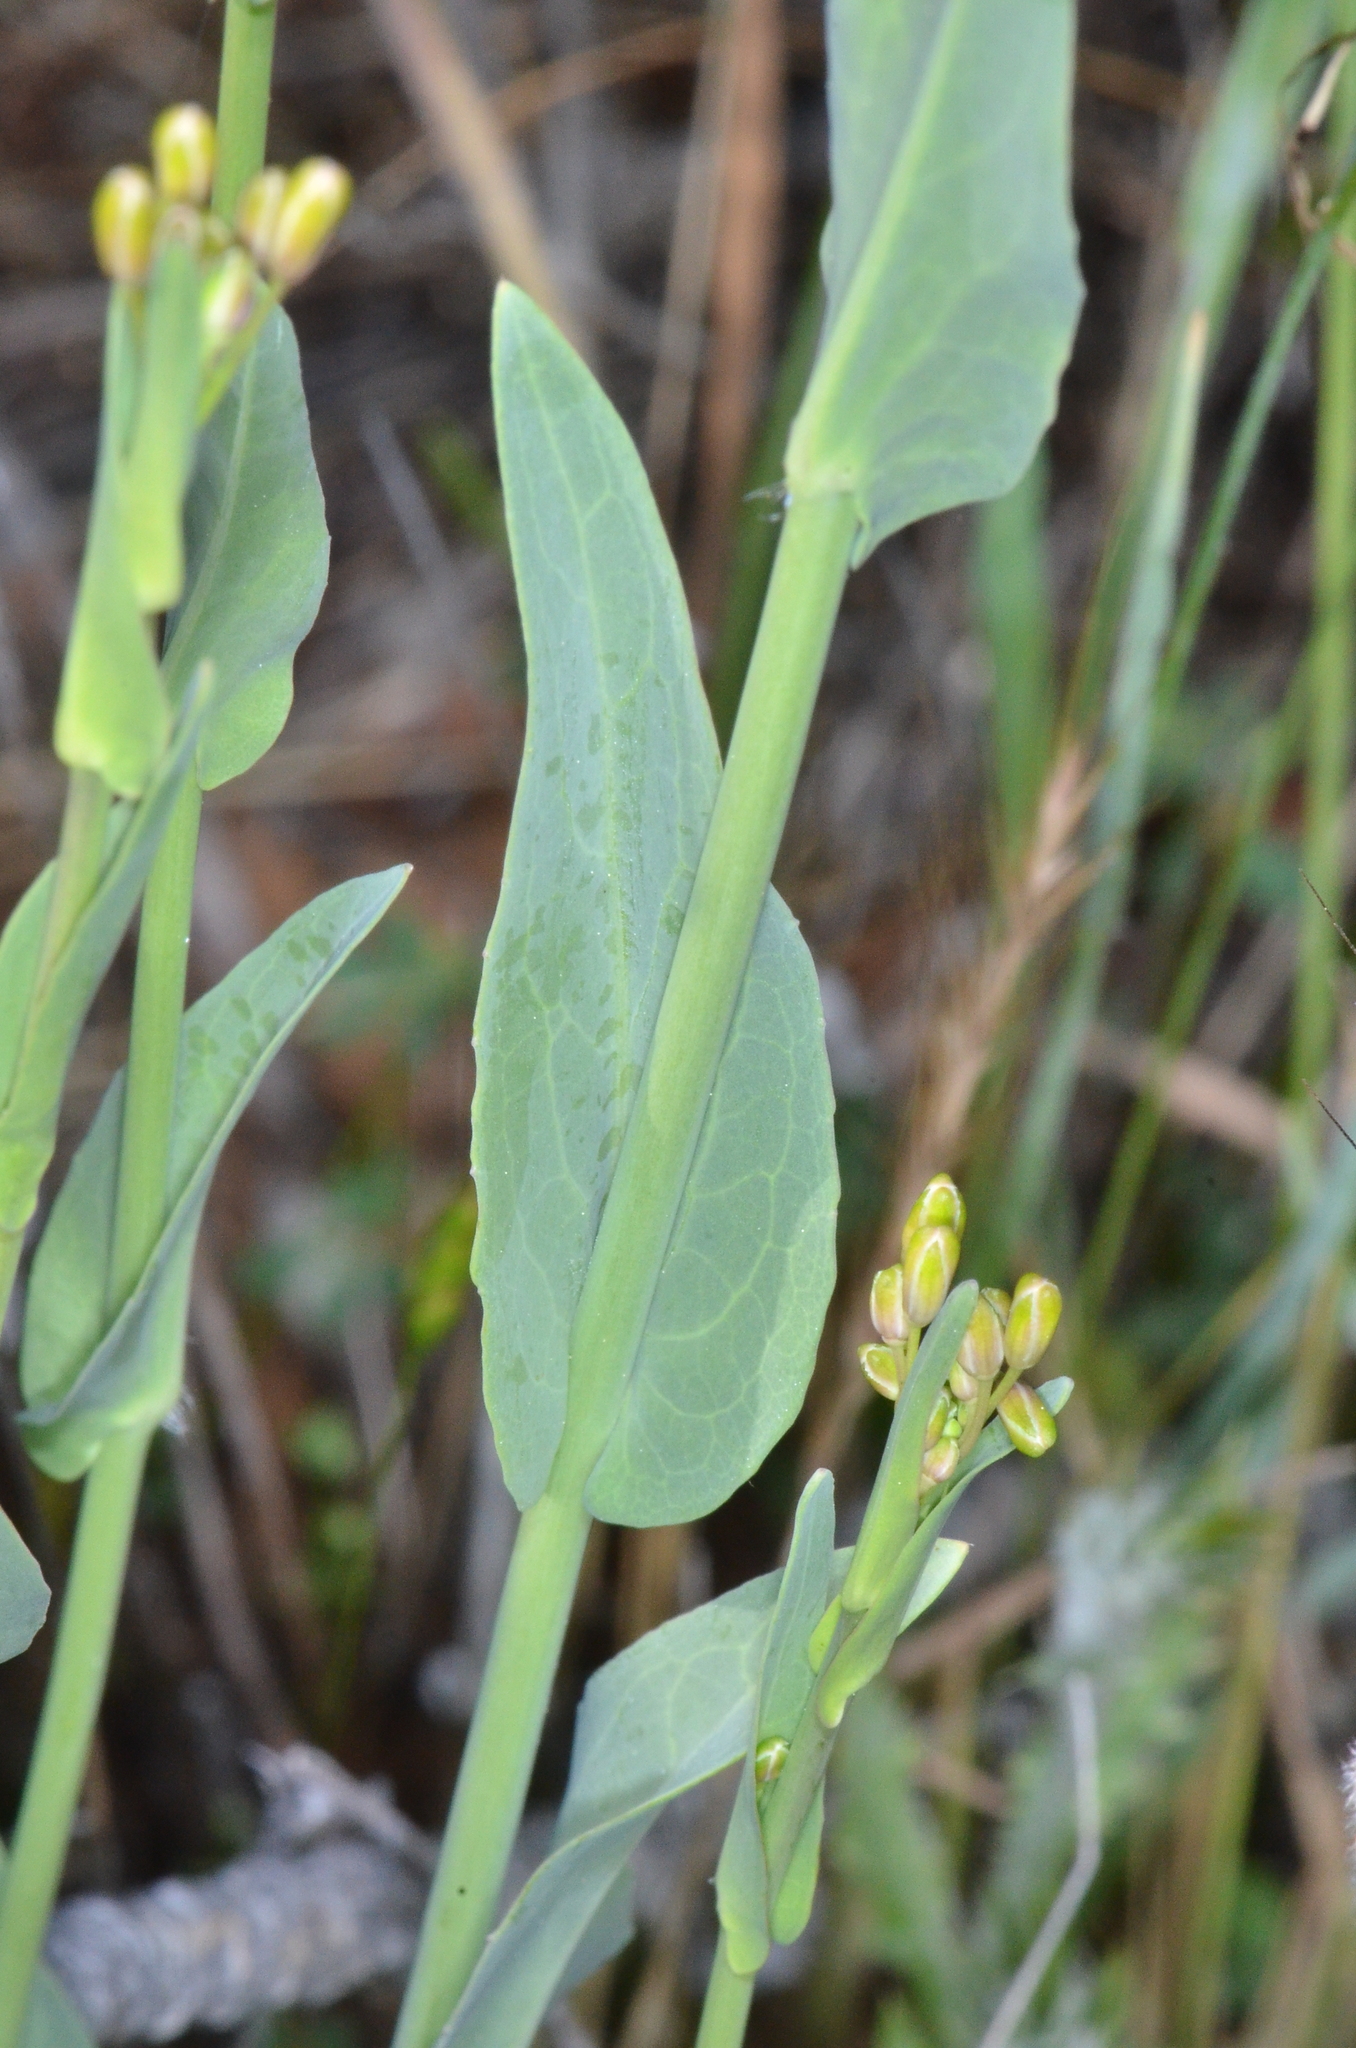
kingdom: Plantae
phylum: Tracheophyta
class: Magnoliopsida
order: Brassicales
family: Brassicaceae
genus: Turritis
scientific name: Turritis glabra
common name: Tower rockcress
